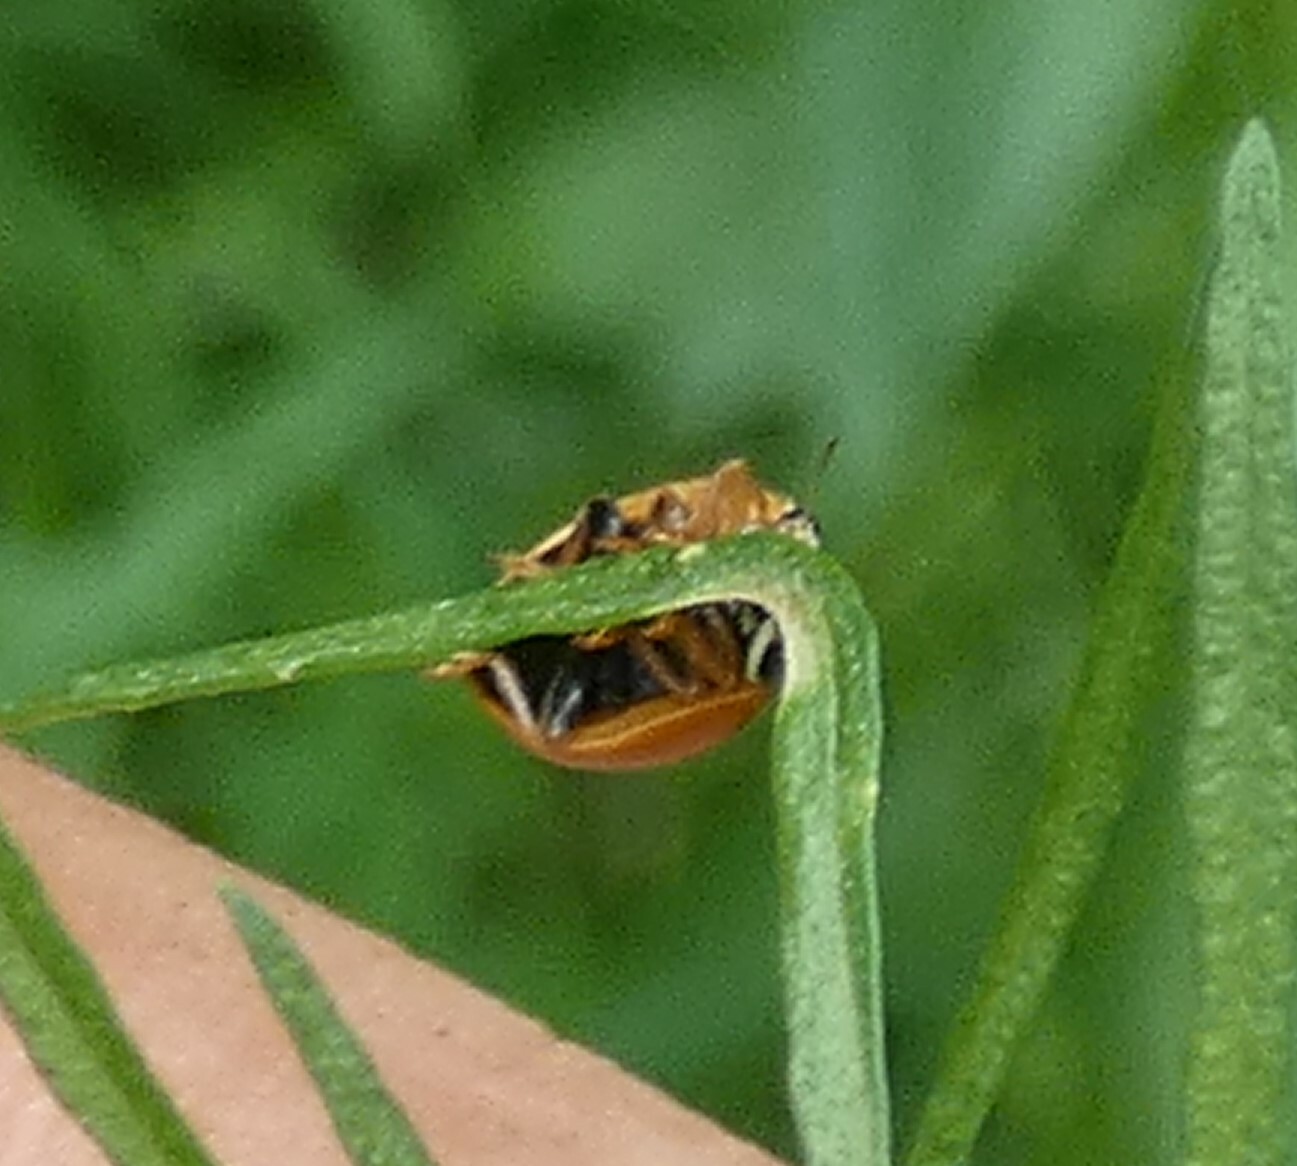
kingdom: Animalia
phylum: Arthropoda
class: Insecta
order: Coleoptera
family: Coccinellidae
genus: Cycloneda
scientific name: Cycloneda munda
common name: Polished lady beetle
